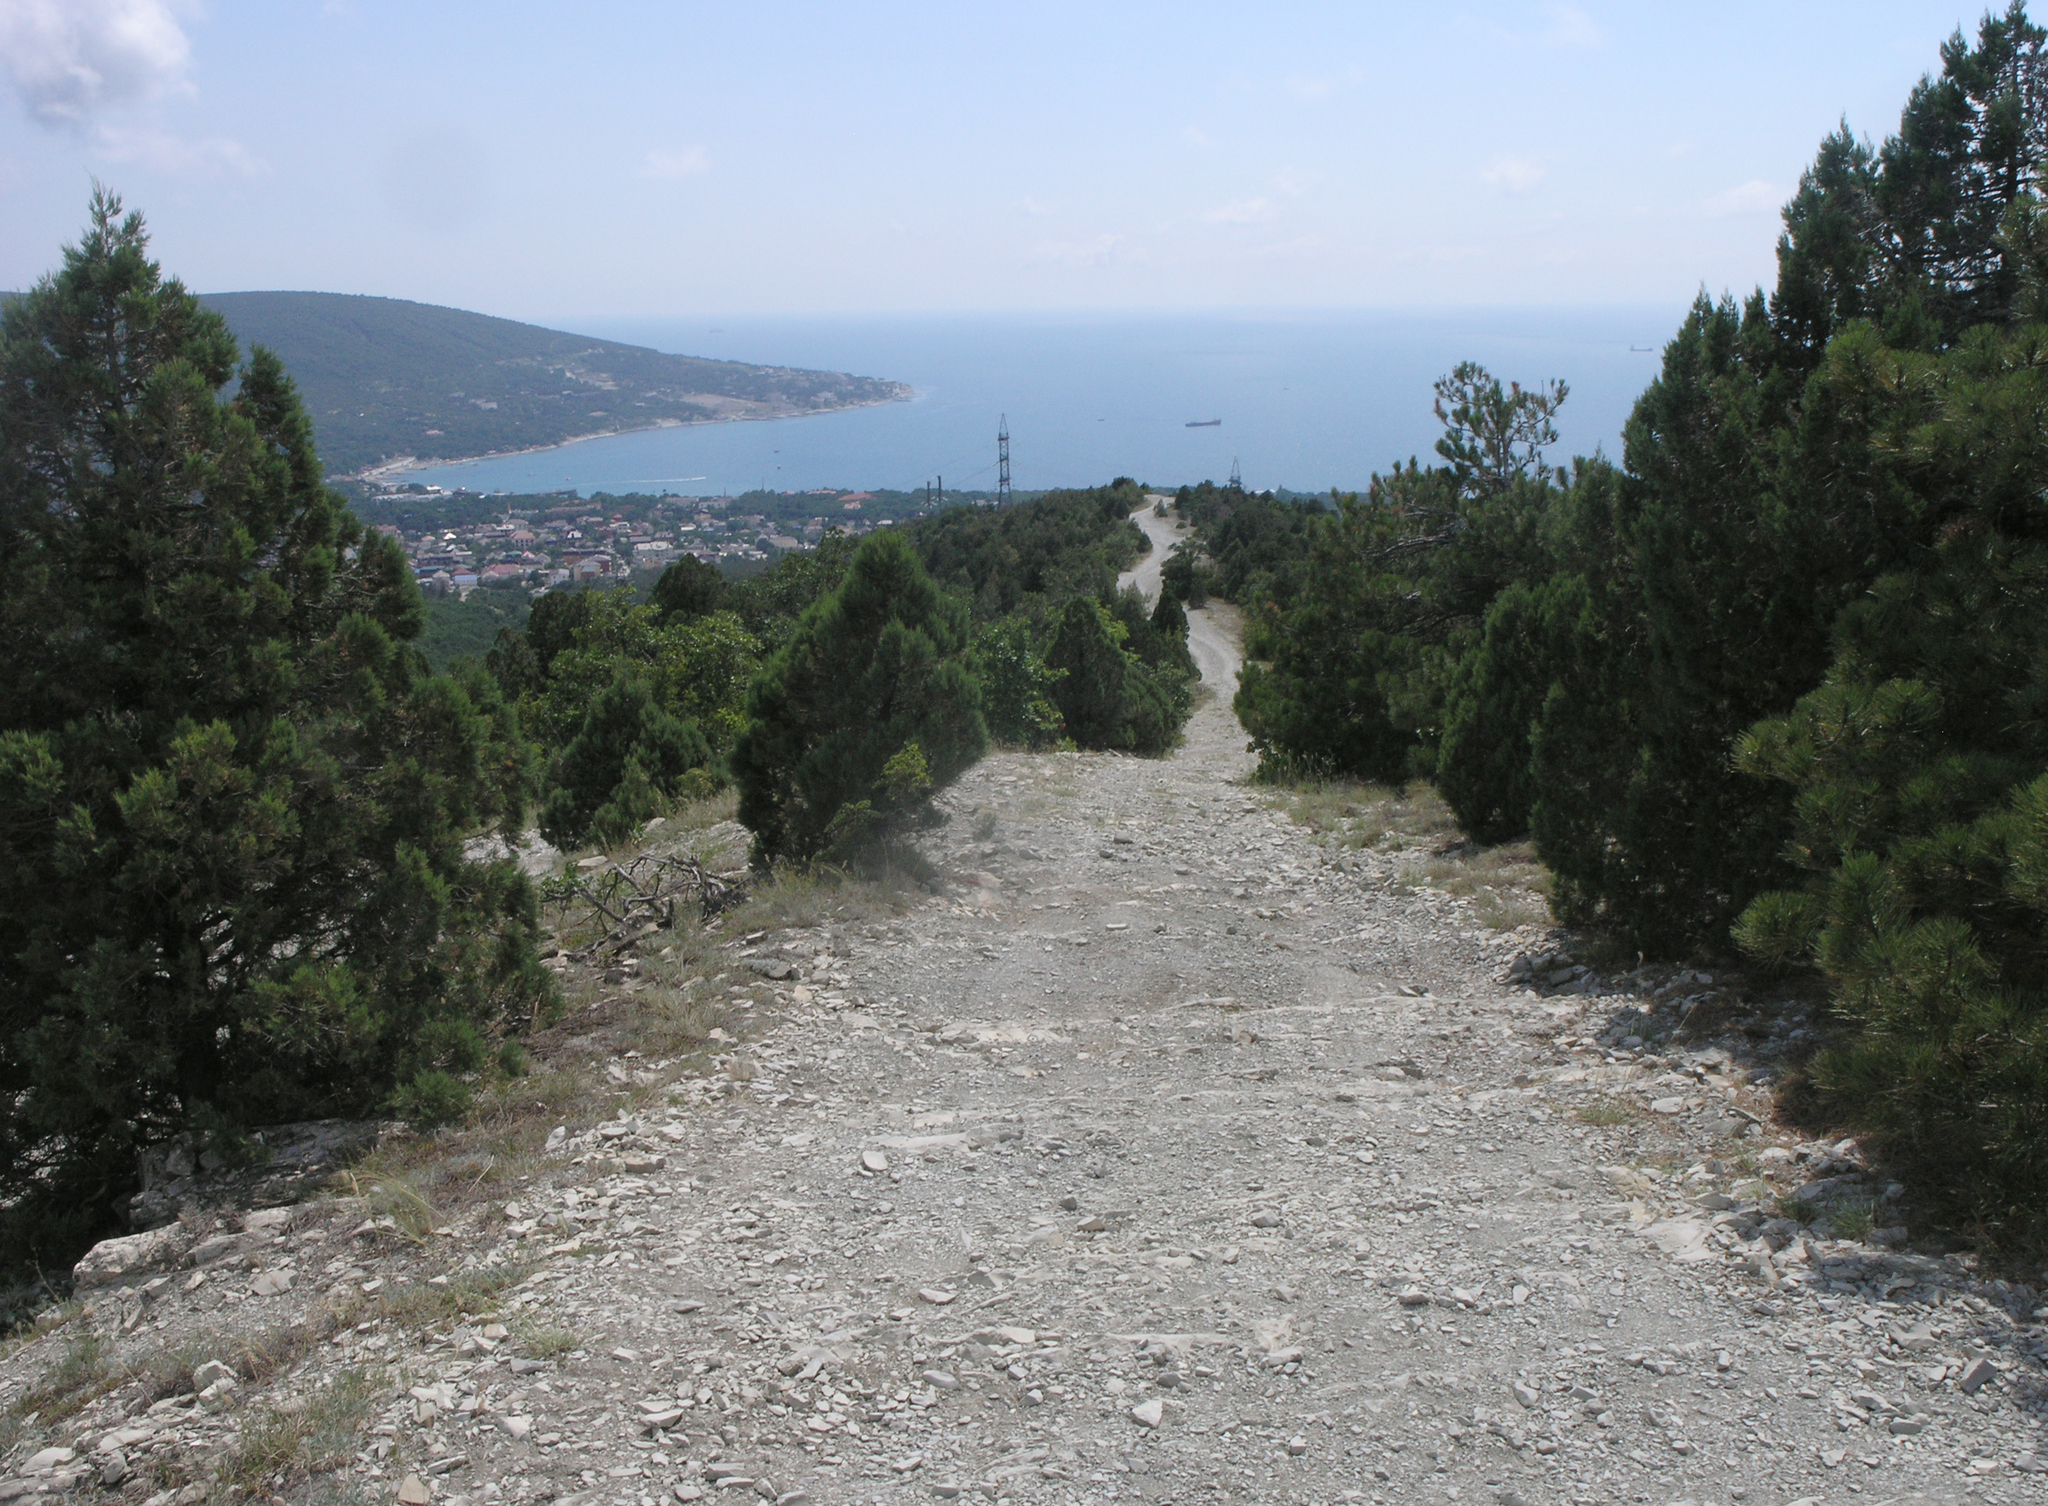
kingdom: Plantae
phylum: Tracheophyta
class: Pinopsida
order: Pinales
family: Cupressaceae
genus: Juniperus
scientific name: Juniperus excelsa
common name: Crimean juniper
